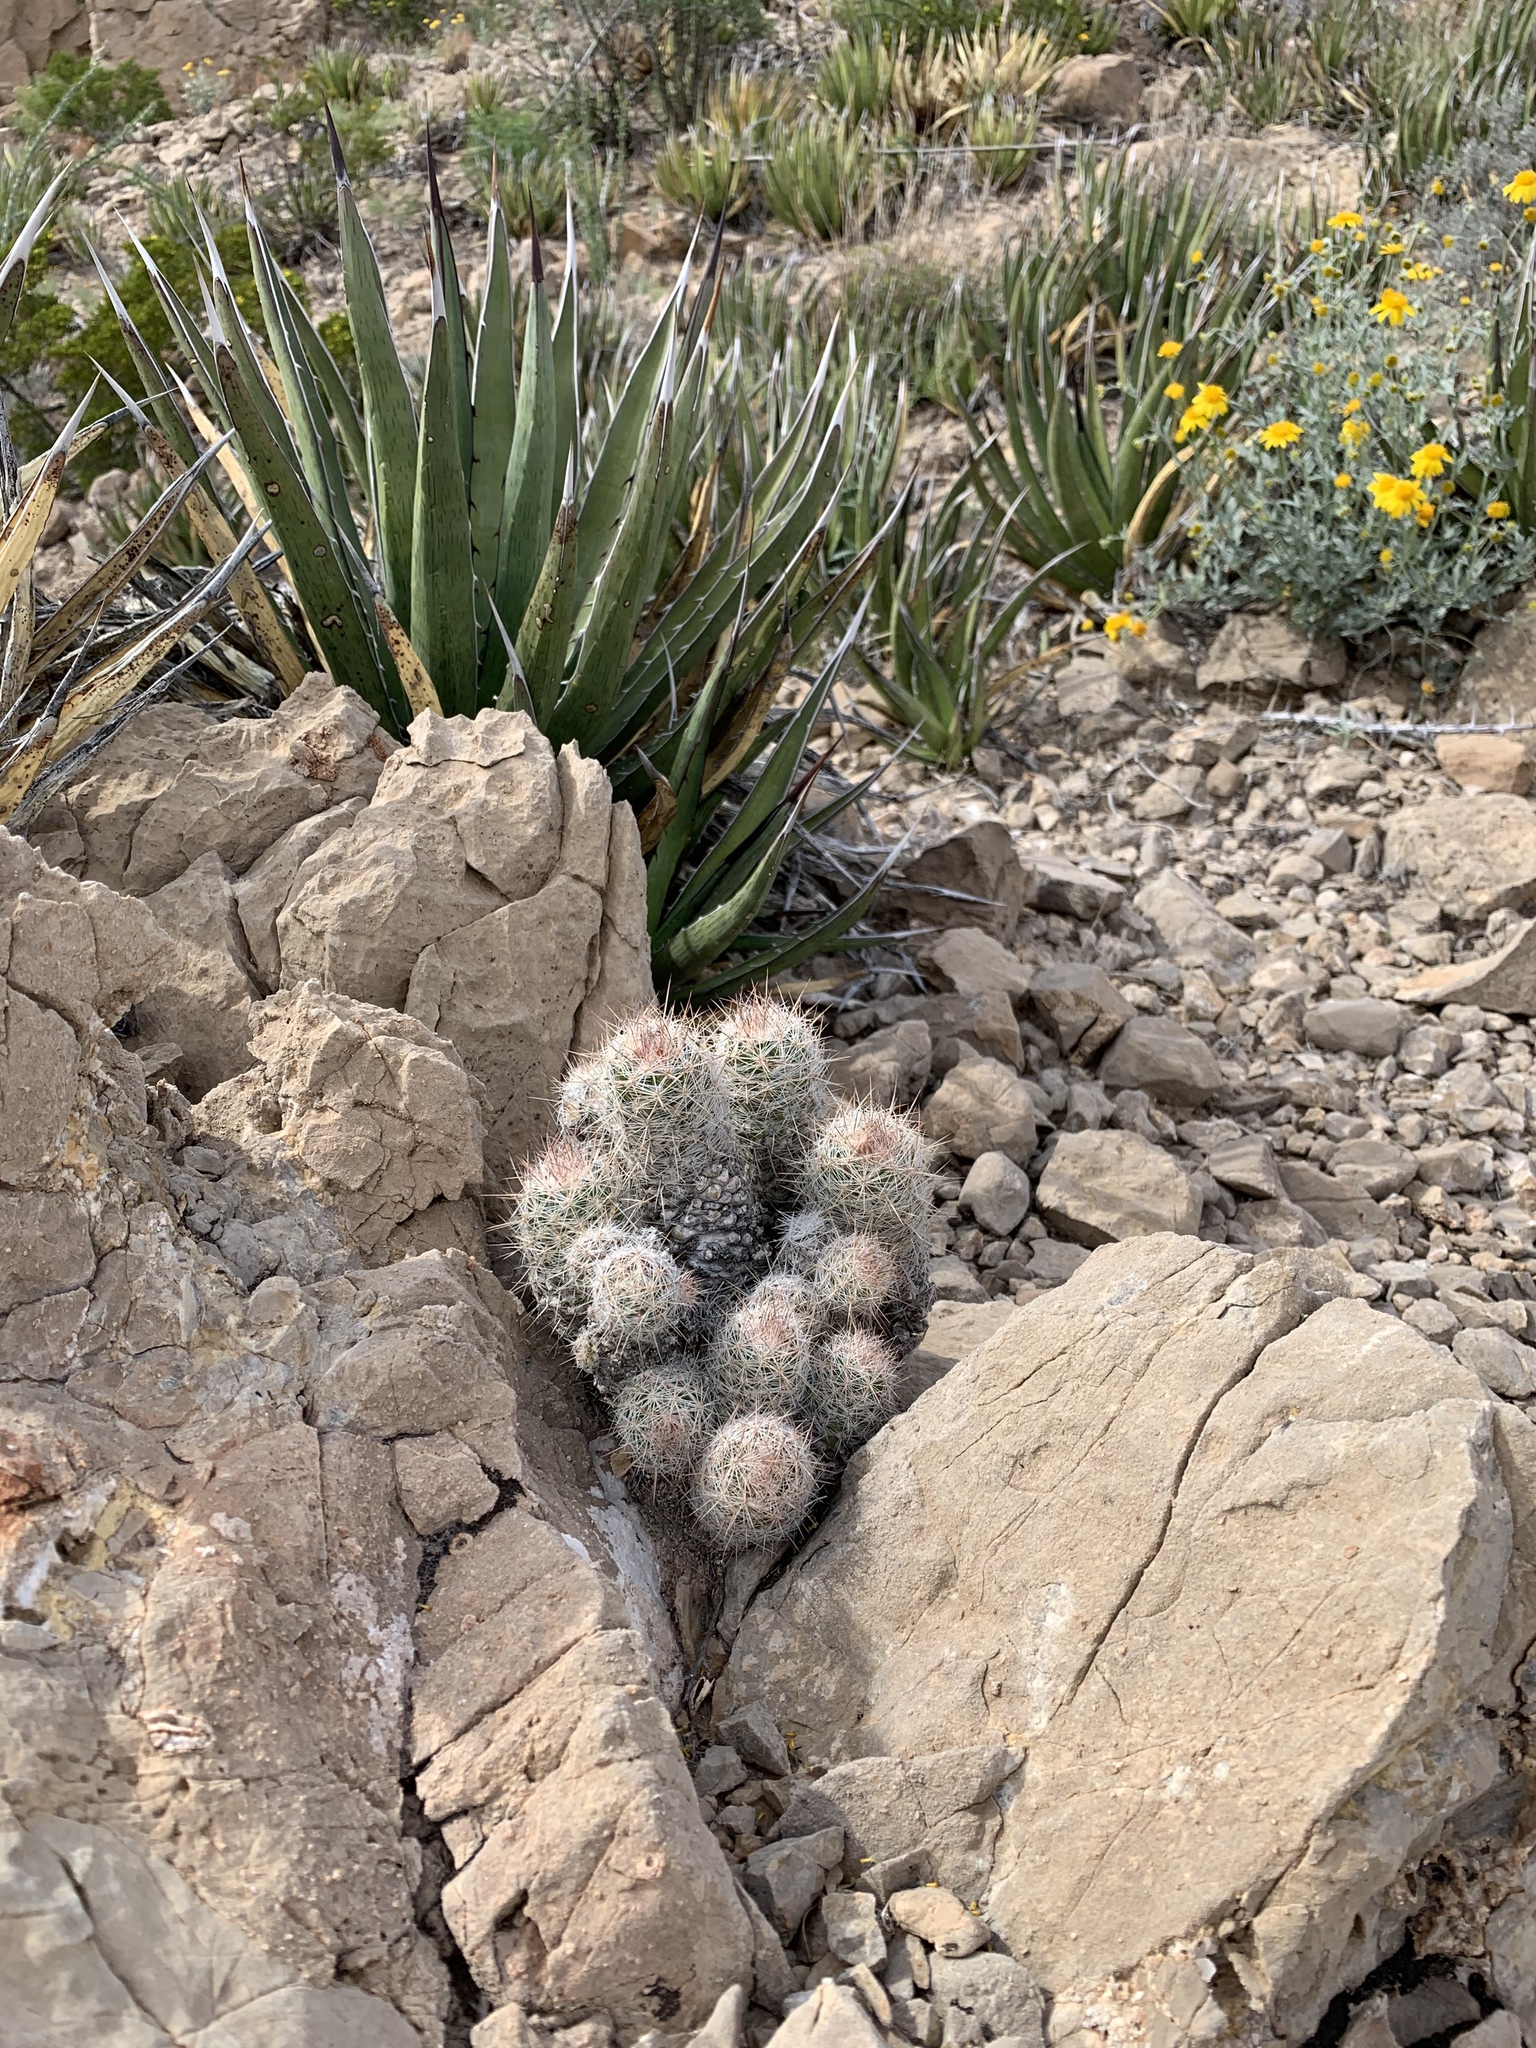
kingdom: Plantae
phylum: Tracheophyta
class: Magnoliopsida
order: Caryophyllales
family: Cactaceae
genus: Pelecyphora
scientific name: Pelecyphora tuberculosa
